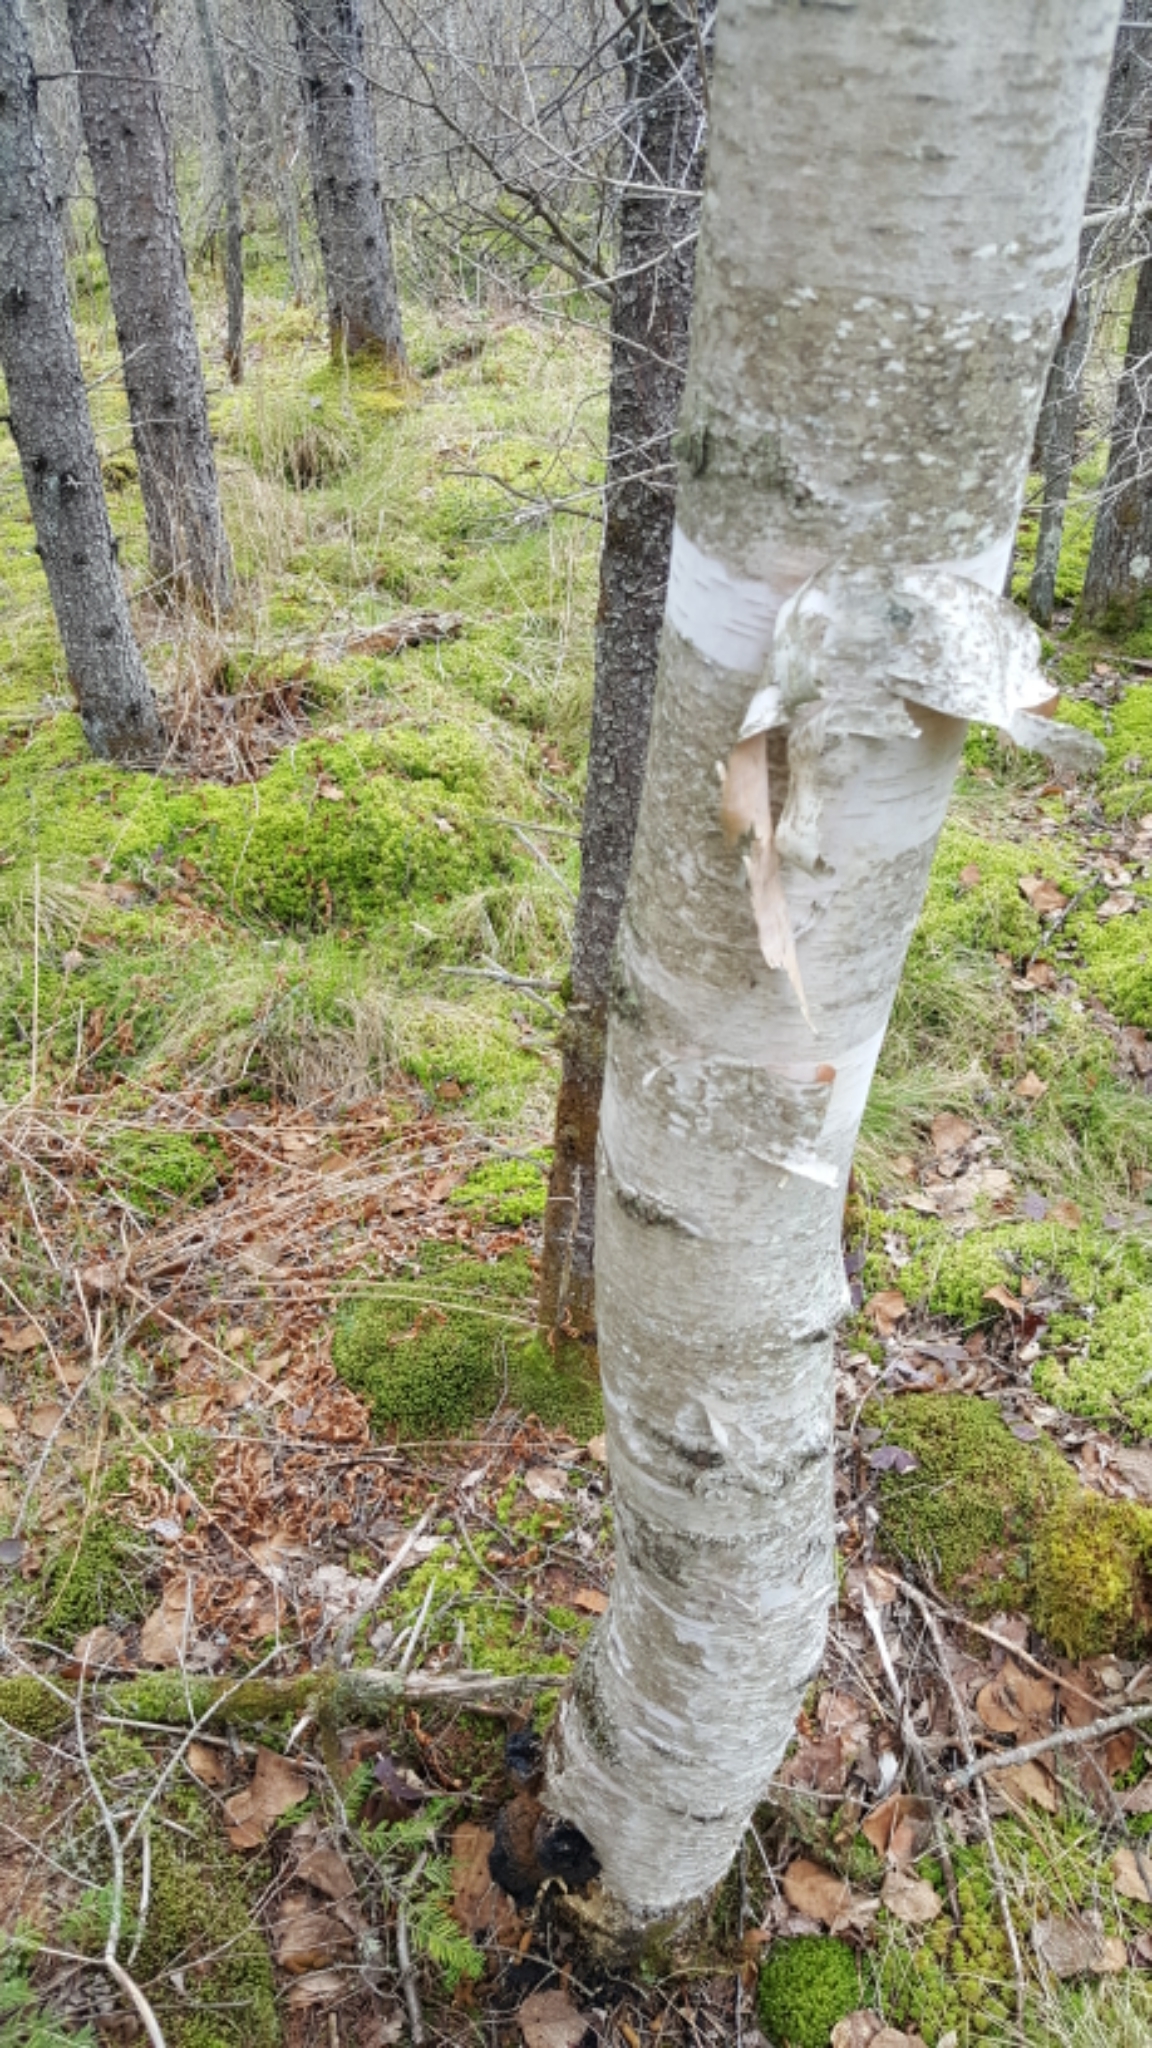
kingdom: Plantae
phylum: Tracheophyta
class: Magnoliopsida
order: Fagales
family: Betulaceae
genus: Betula
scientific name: Betula papyrifera
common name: Paper birch
